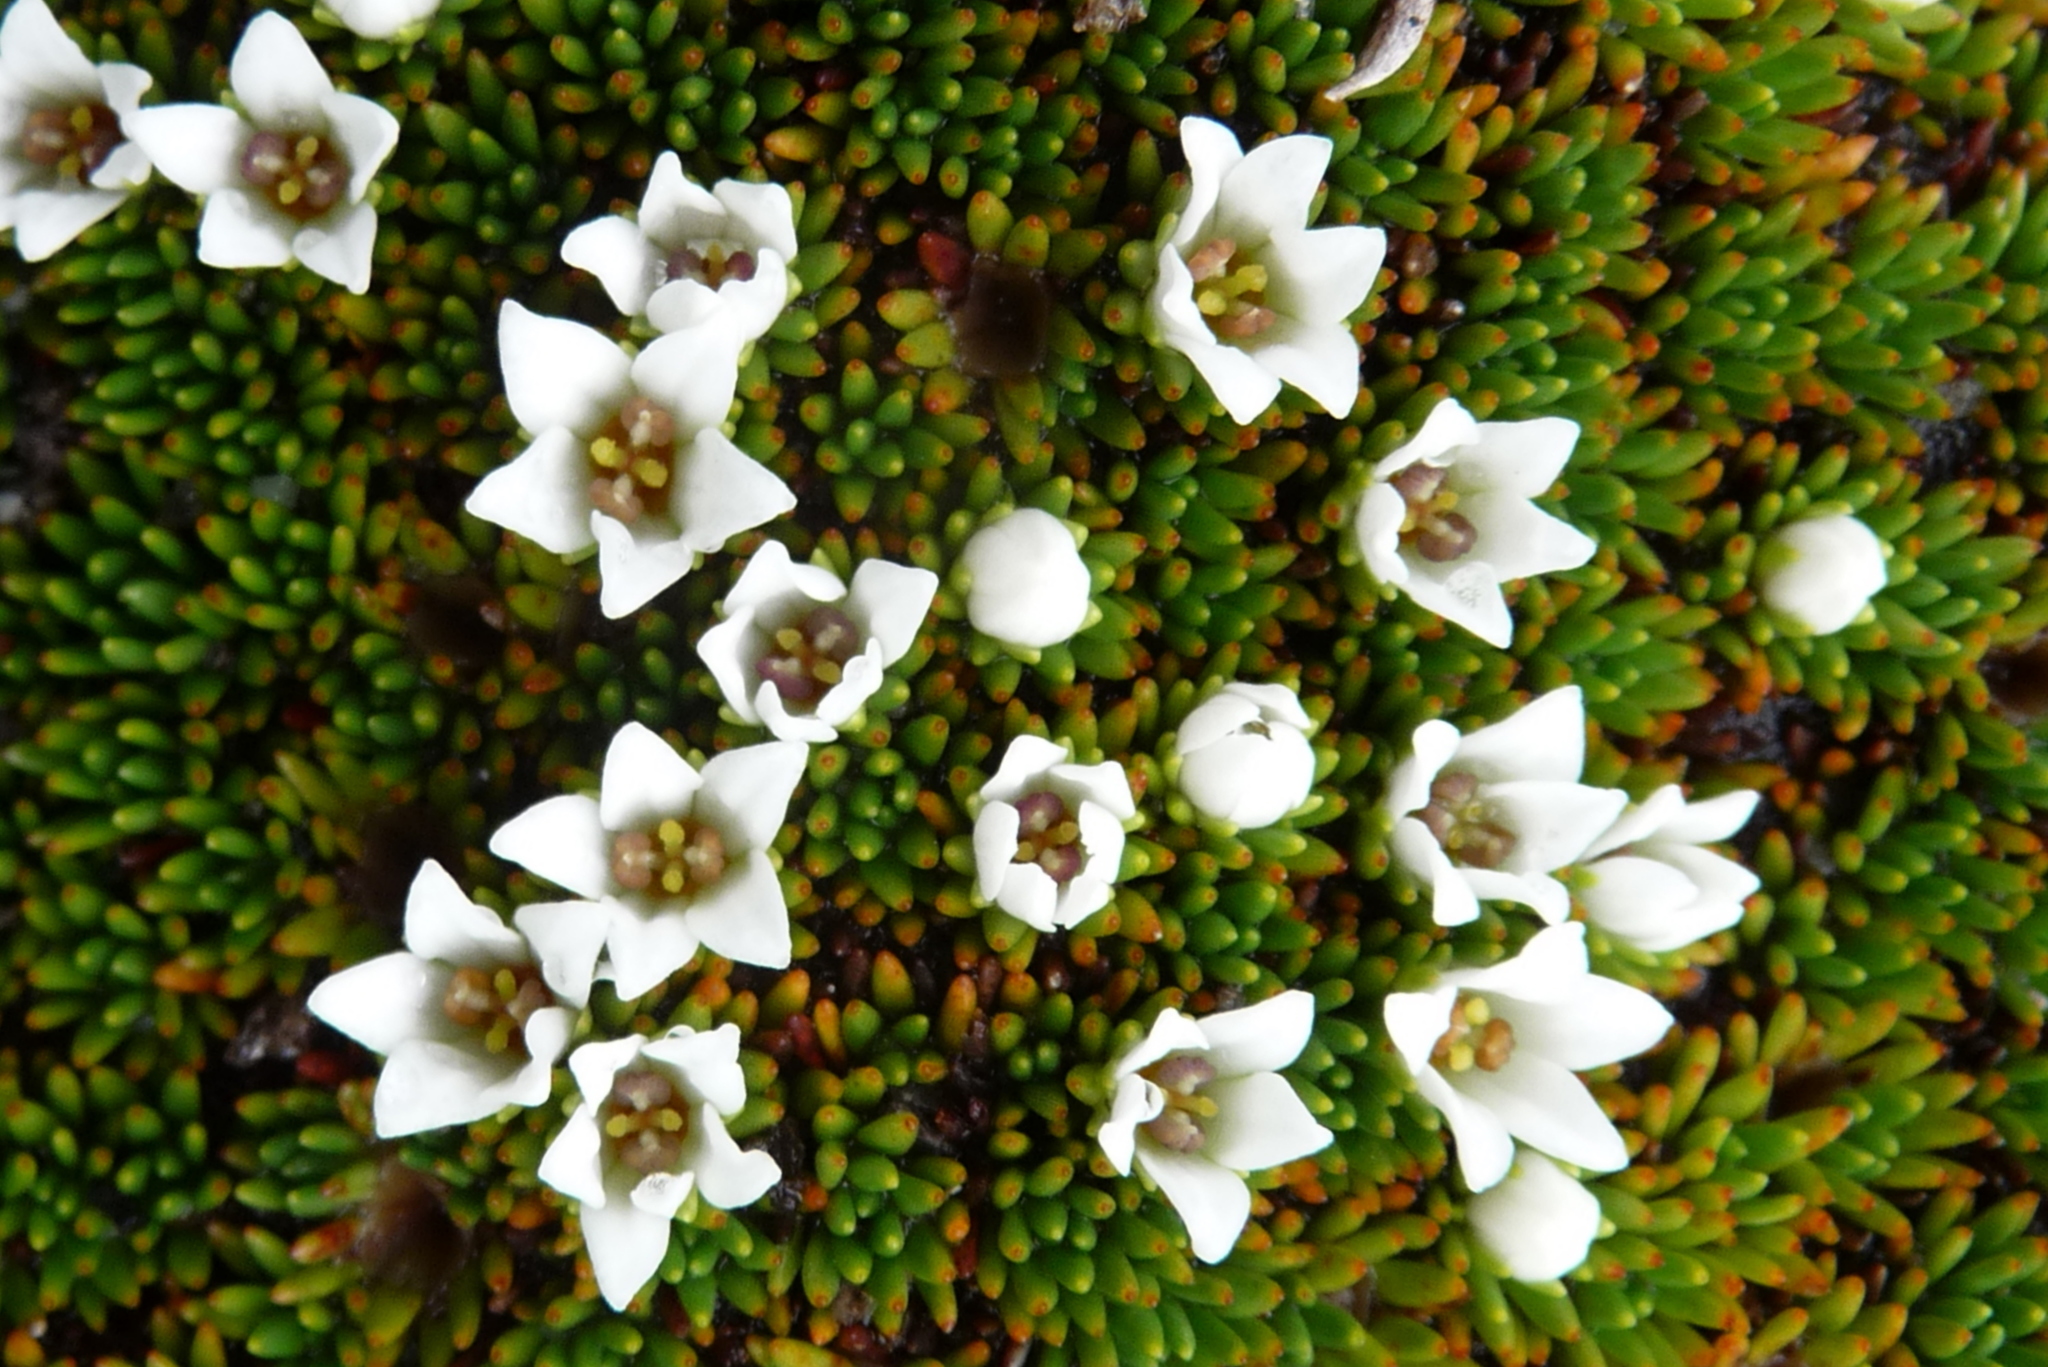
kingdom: Plantae
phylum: Tracheophyta
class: Magnoliopsida
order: Asterales
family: Stylidiaceae
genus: Donatia
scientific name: Donatia novae-zelandiae
